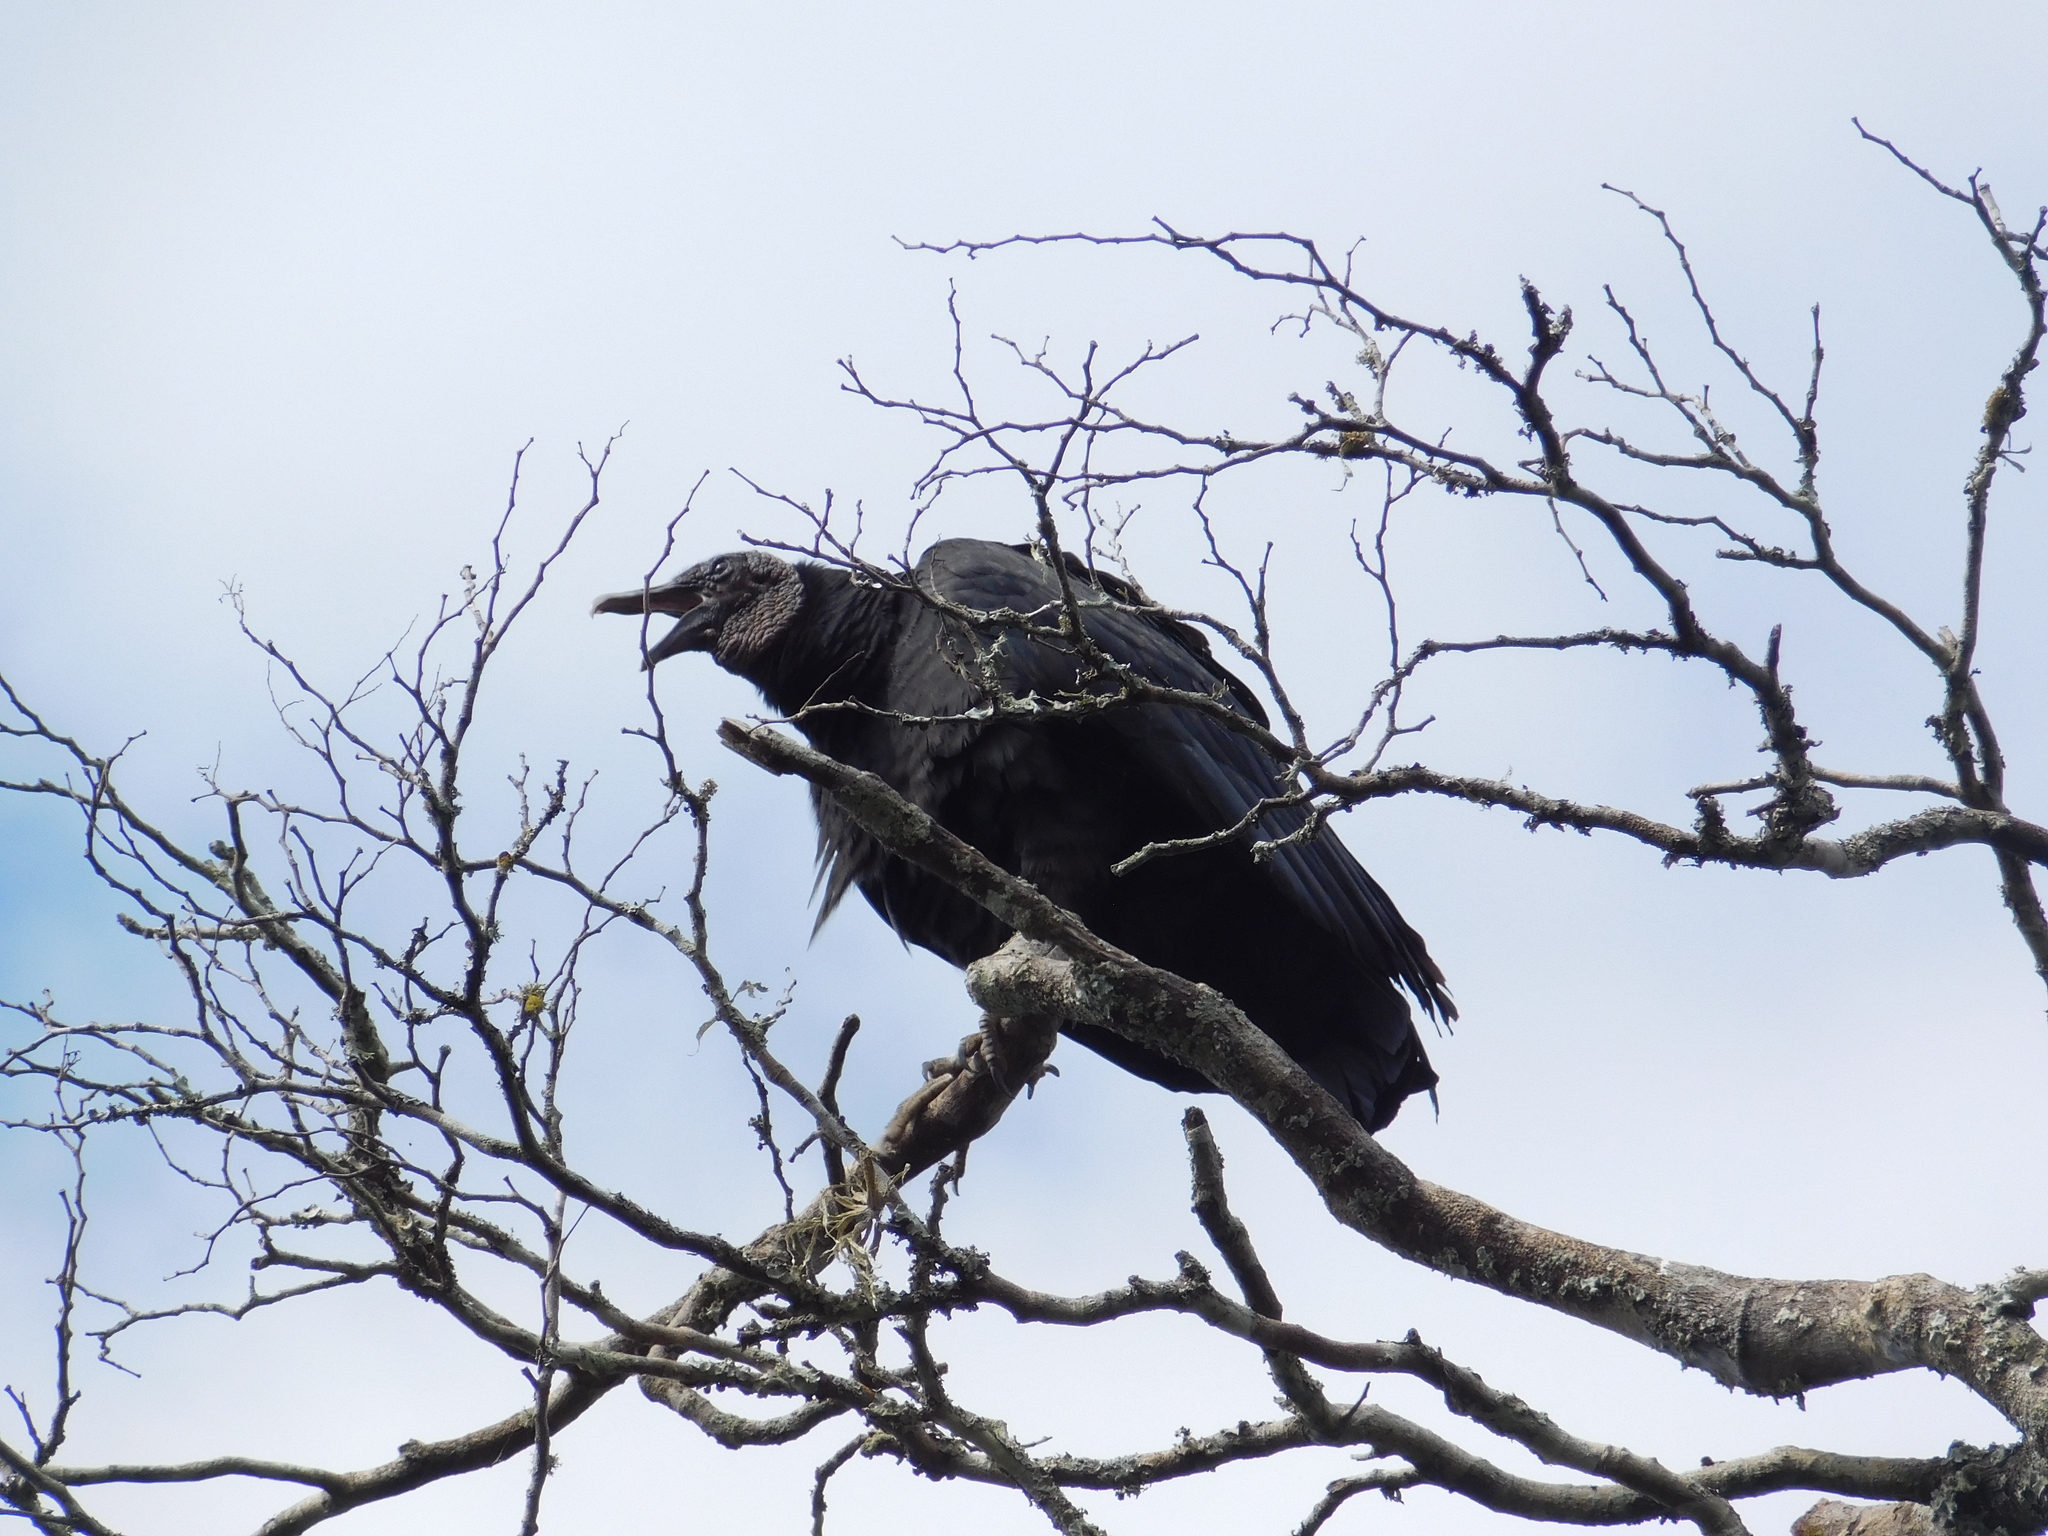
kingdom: Animalia
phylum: Chordata
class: Aves
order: Accipitriformes
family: Cathartidae
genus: Coragyps
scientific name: Coragyps atratus
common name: Black vulture
